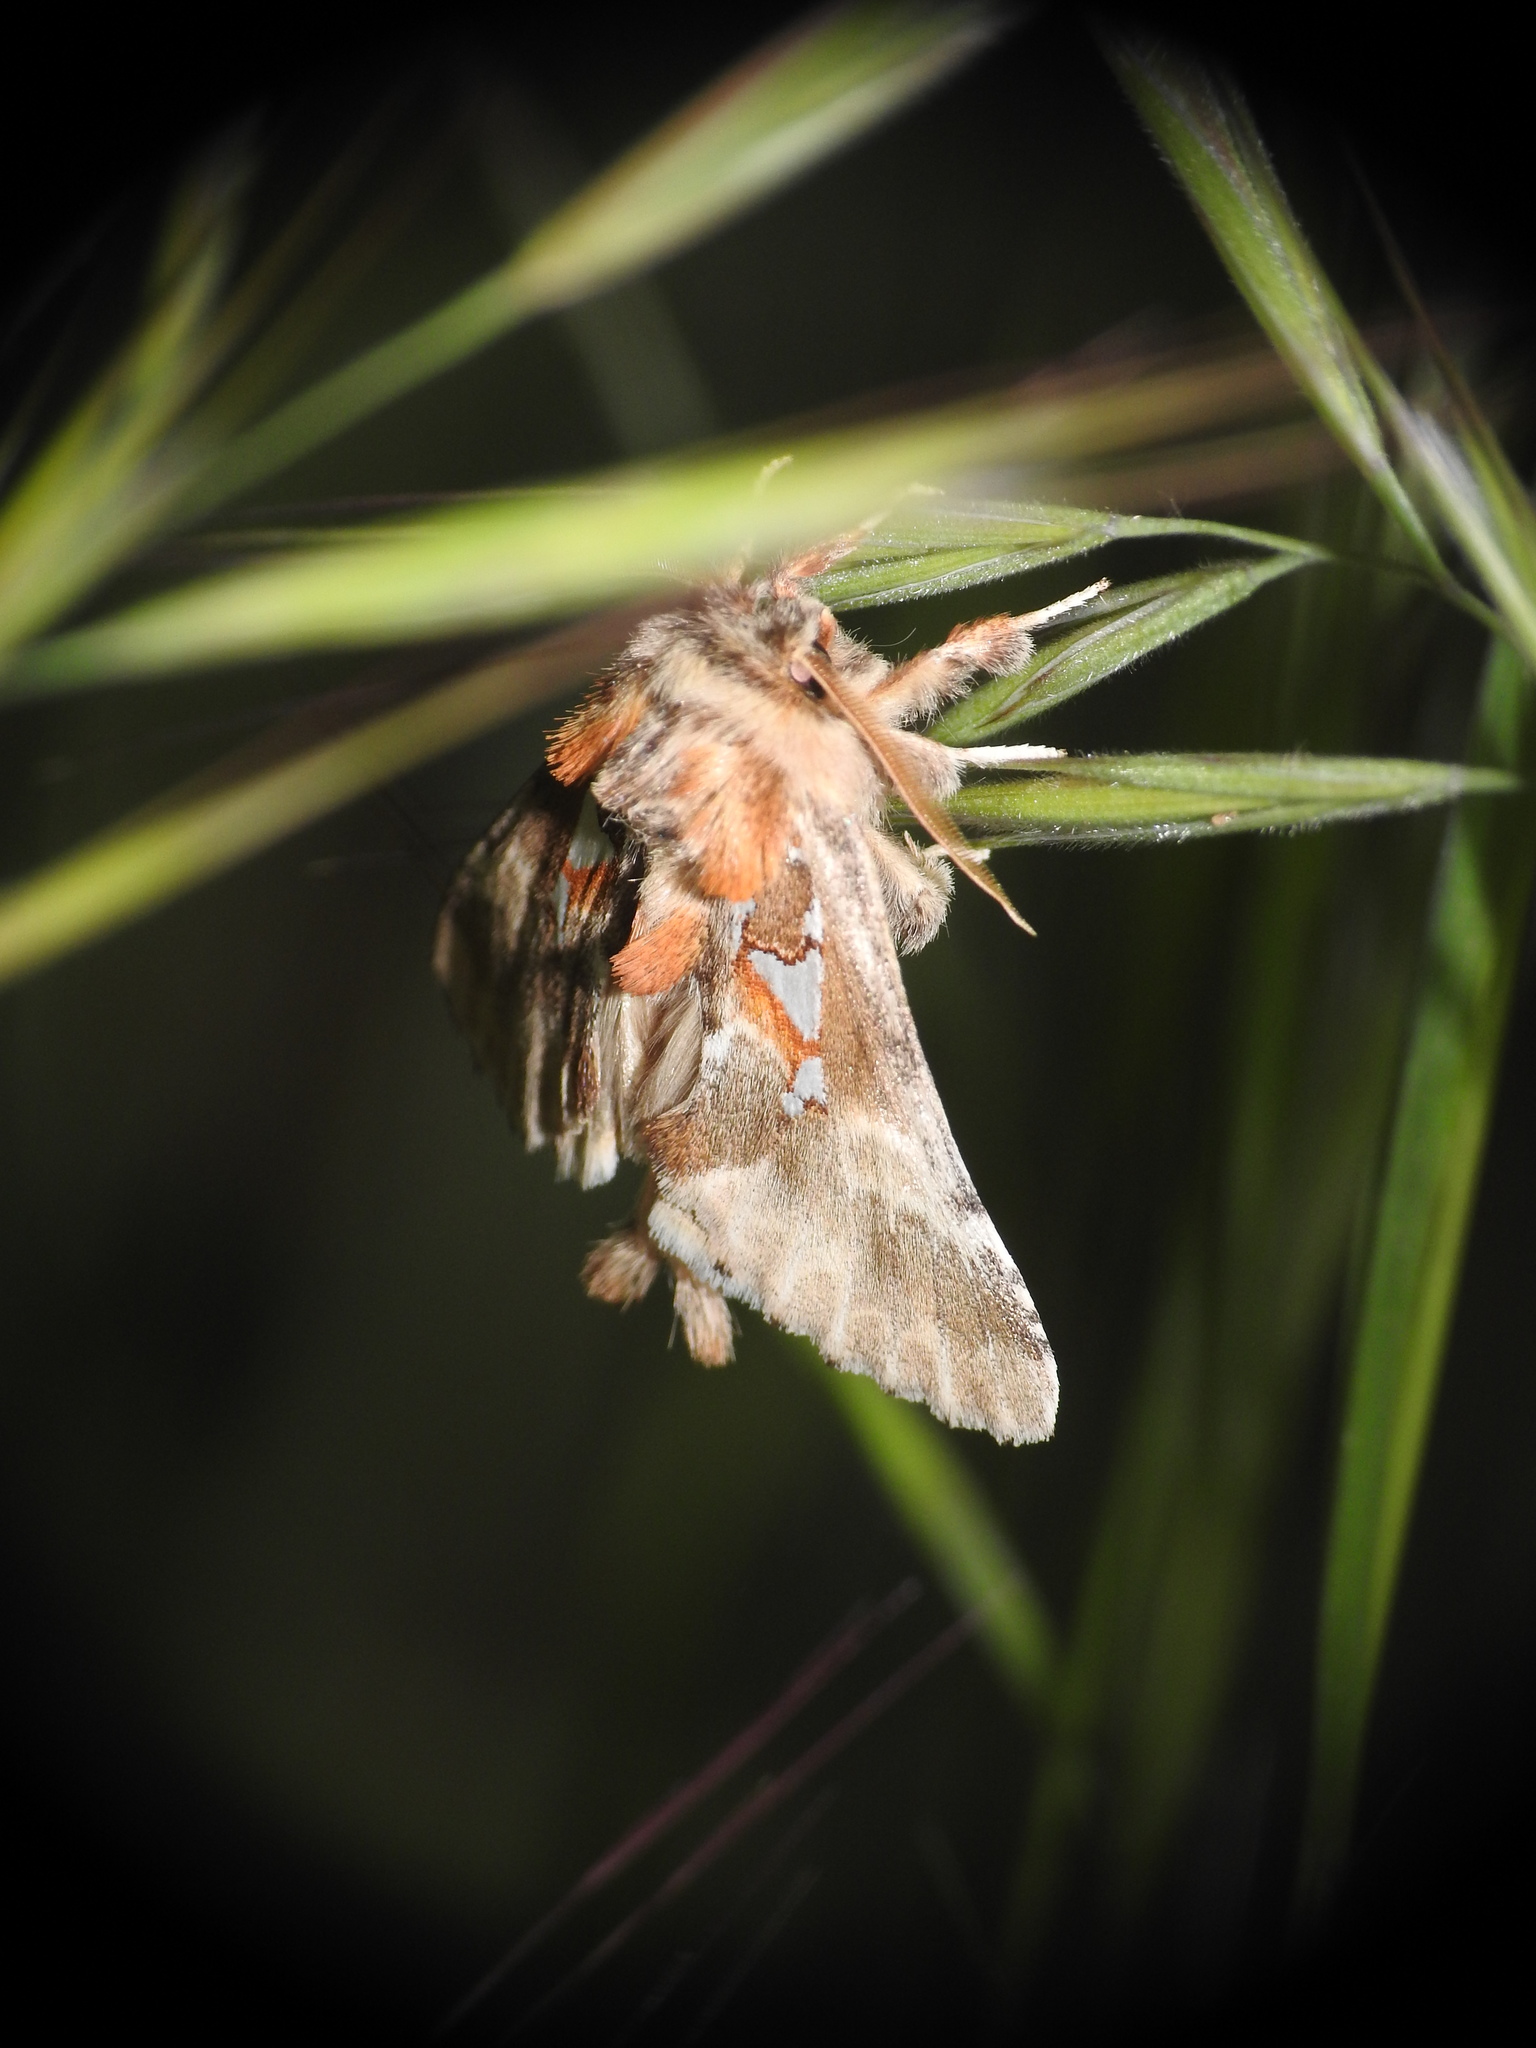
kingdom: Animalia
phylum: Arthropoda
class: Insecta
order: Lepidoptera
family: Notodontidae
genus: Spatalia
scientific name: Spatalia argentina
